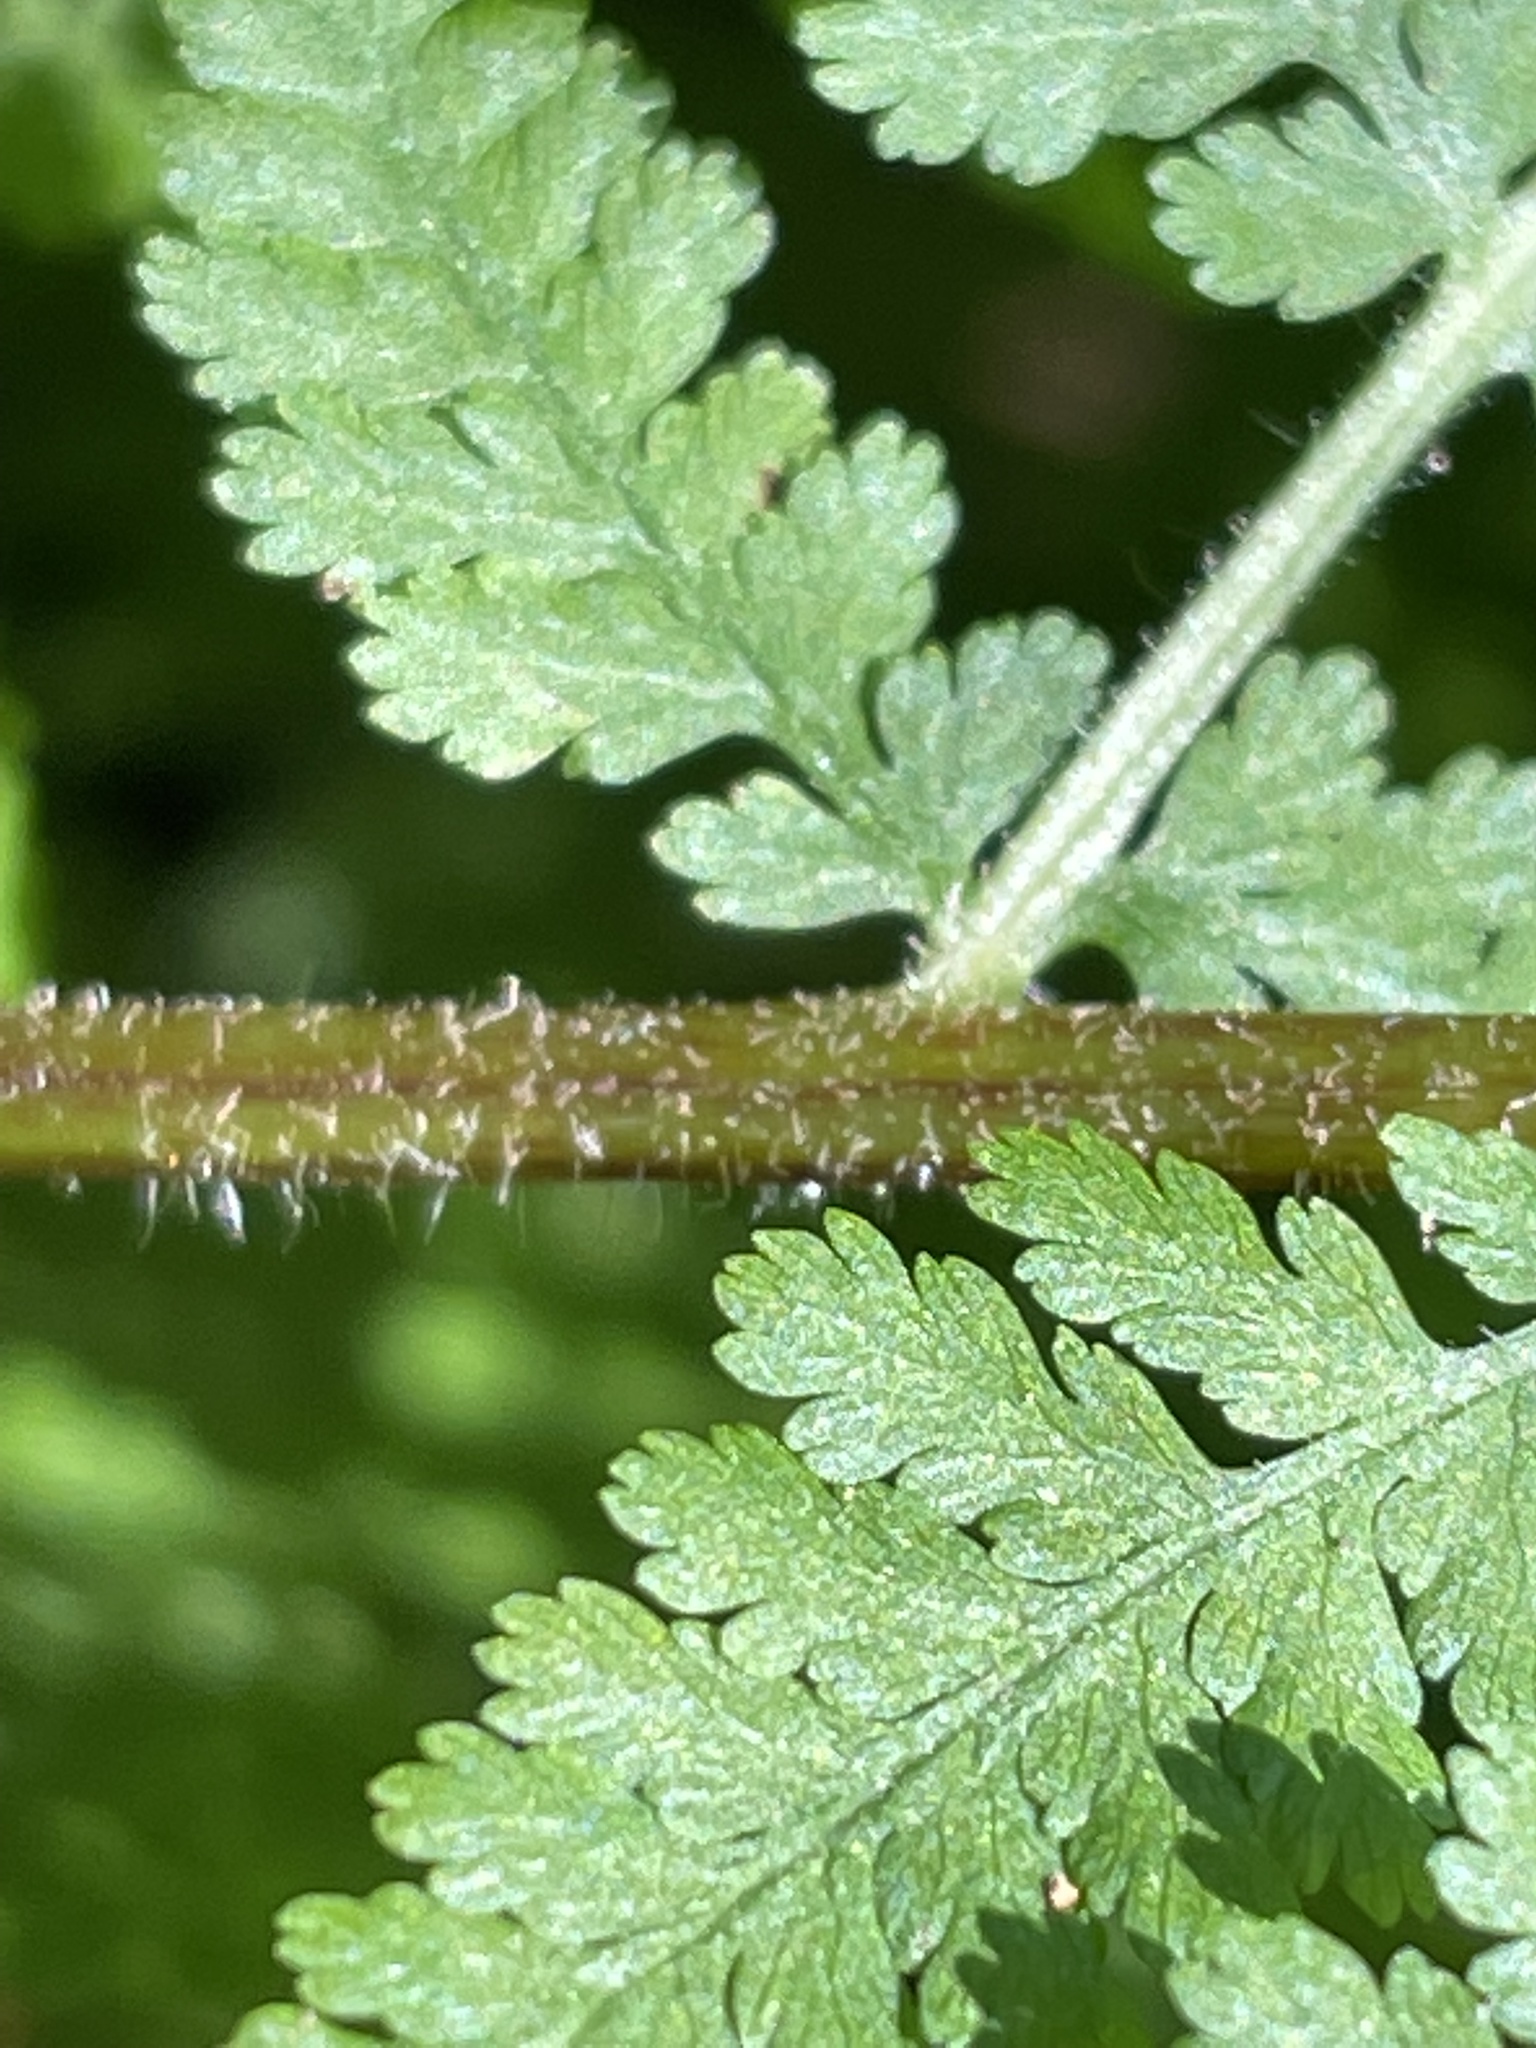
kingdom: Plantae
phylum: Tracheophyta
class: Polypodiopsida
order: Polypodiales
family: Dennstaedtiaceae
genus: Sitobolium
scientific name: Sitobolium punctilobum
